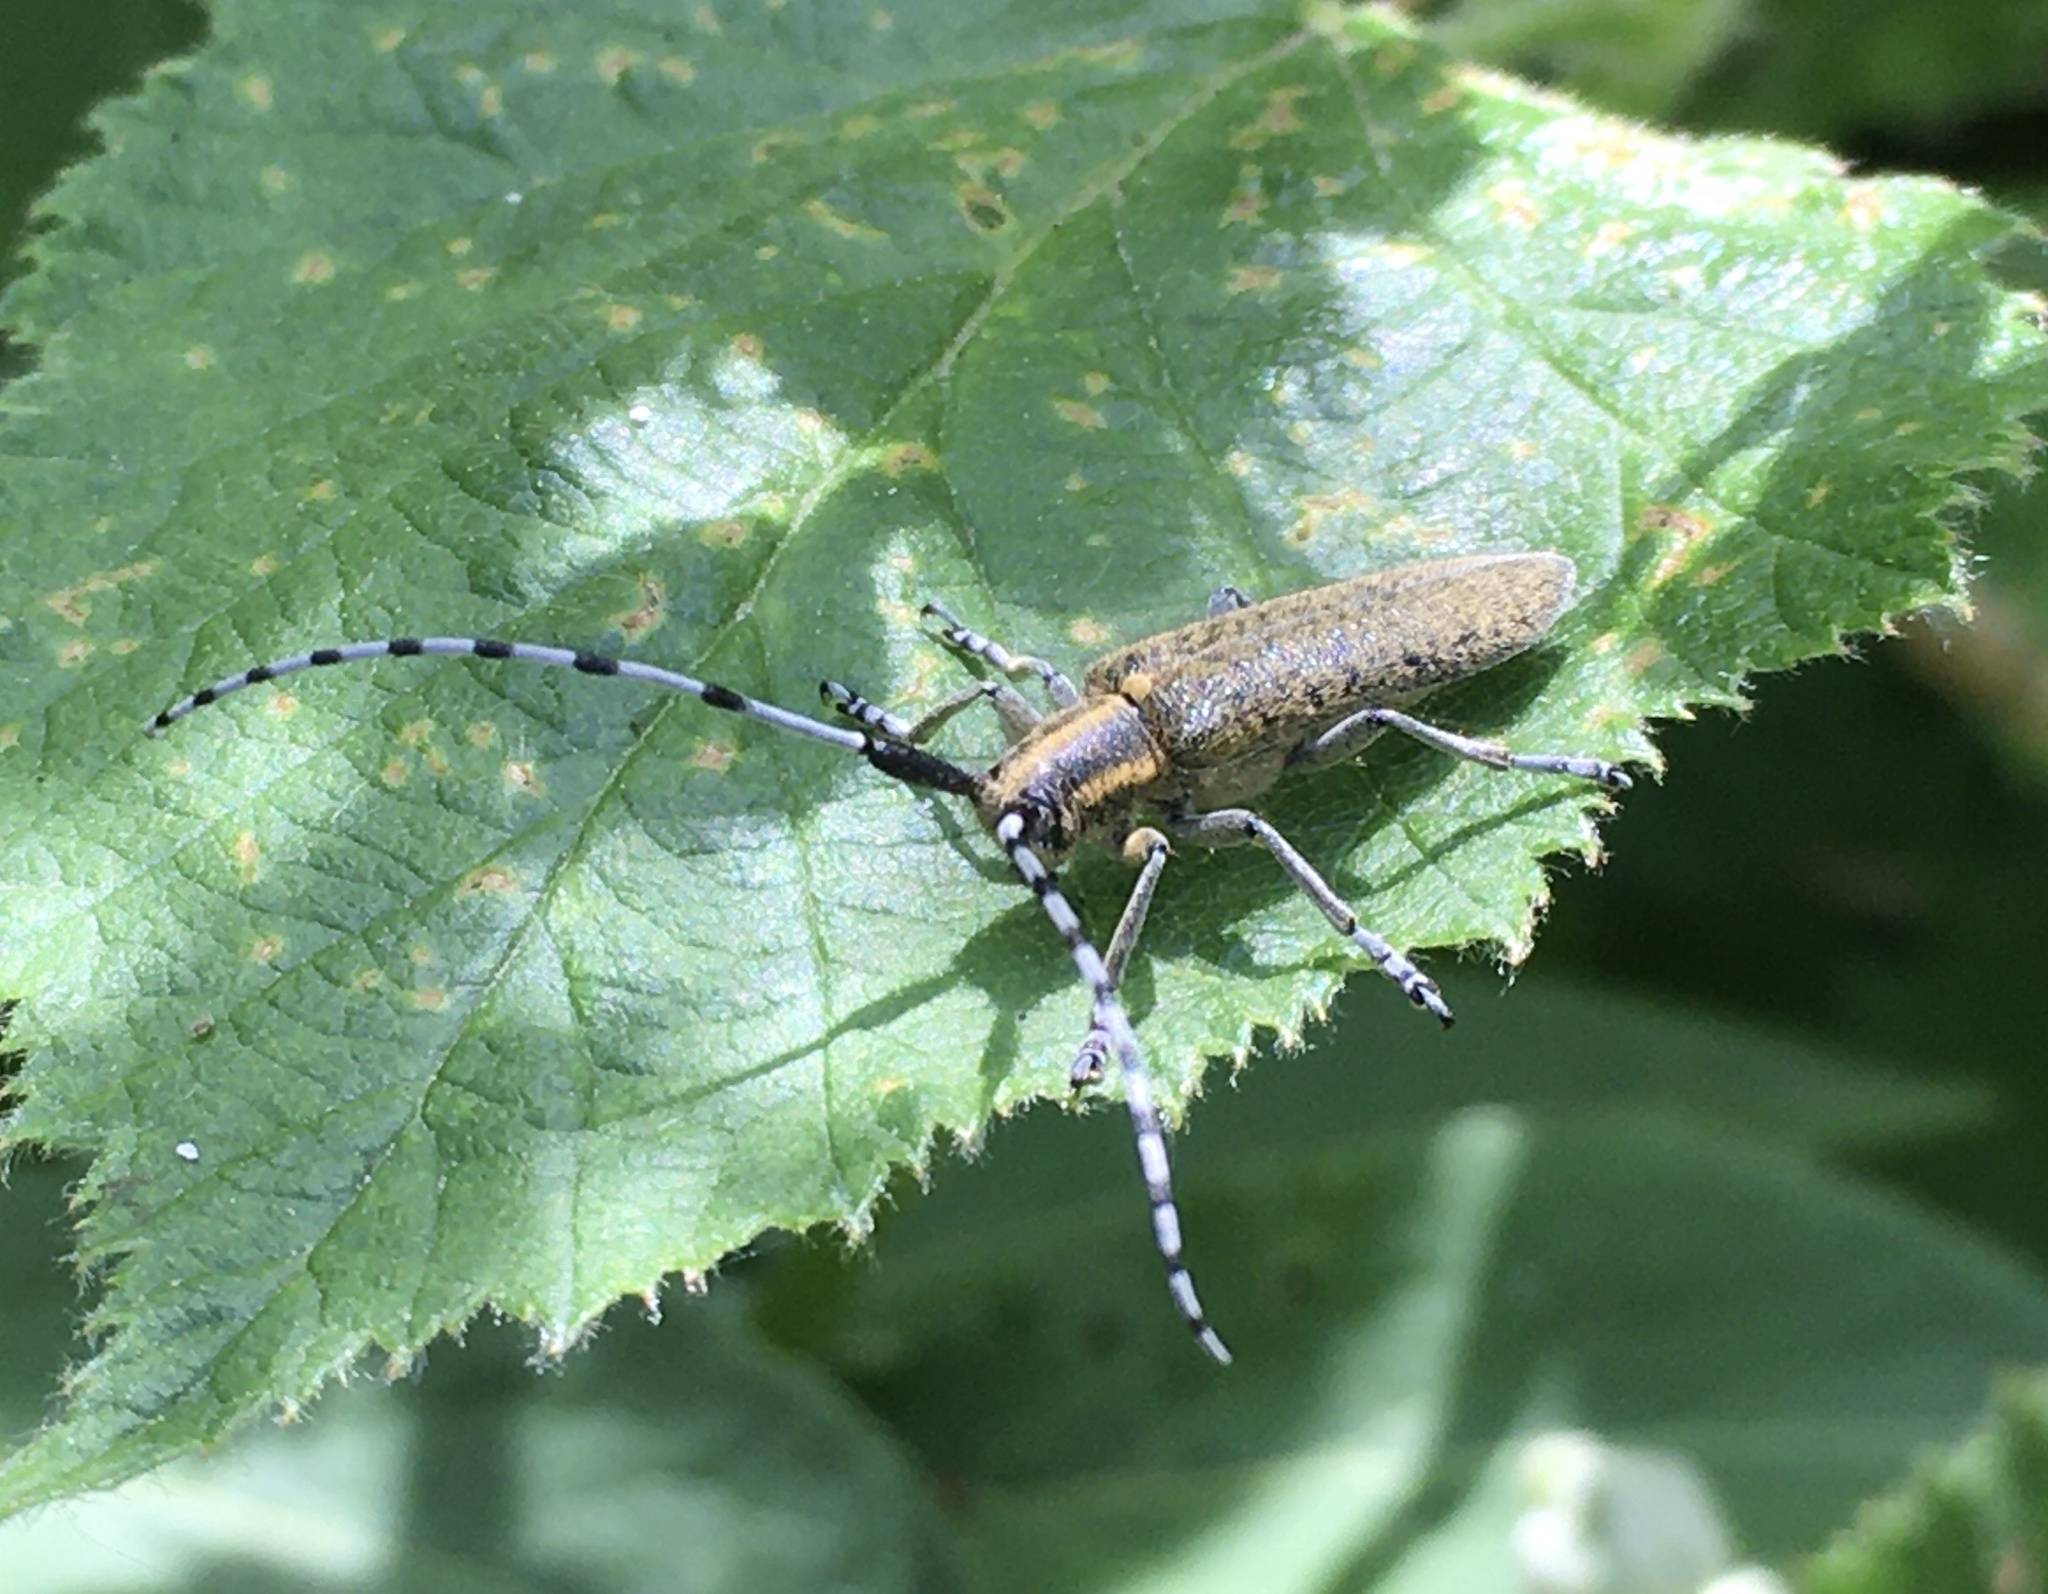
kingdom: Animalia
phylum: Arthropoda
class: Insecta
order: Coleoptera
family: Cerambycidae
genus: Agapanthia
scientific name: Agapanthia villosoviridescens
